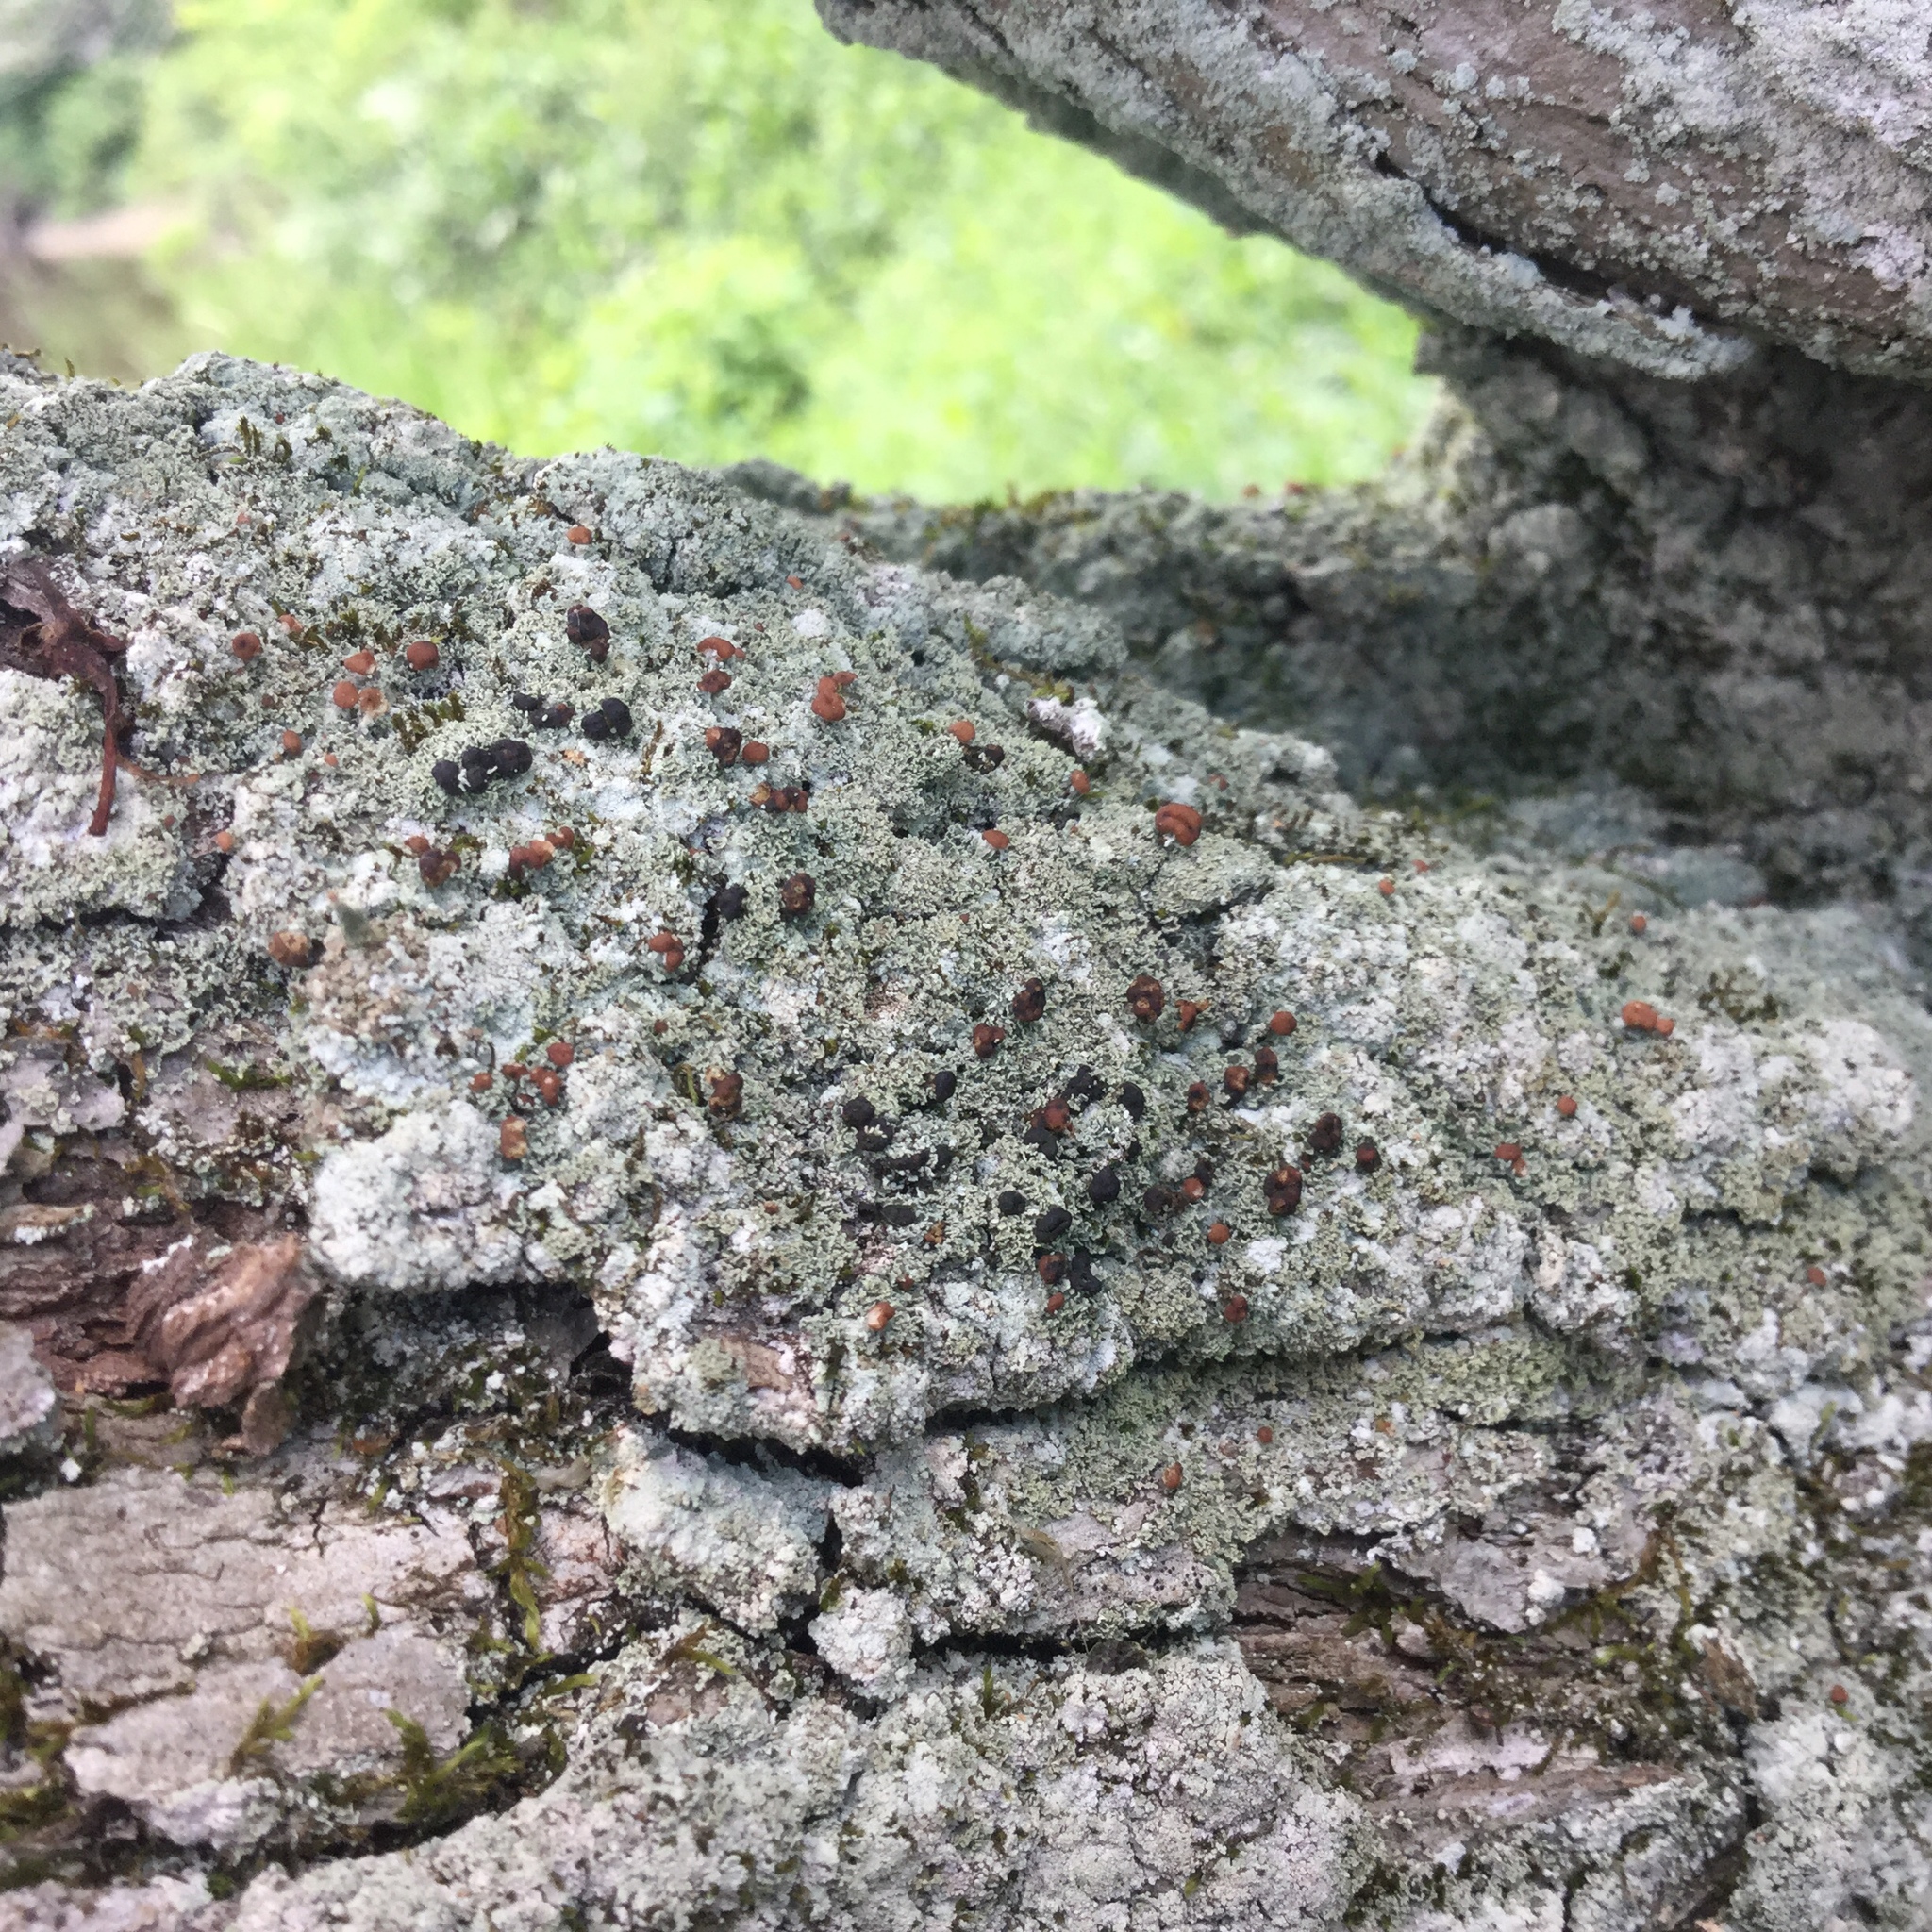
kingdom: Fungi
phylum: Ascomycota
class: Lecanoromycetes
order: Lecanorales
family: Cladoniaceae
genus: Cladonia
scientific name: Cladonia caespiticia
